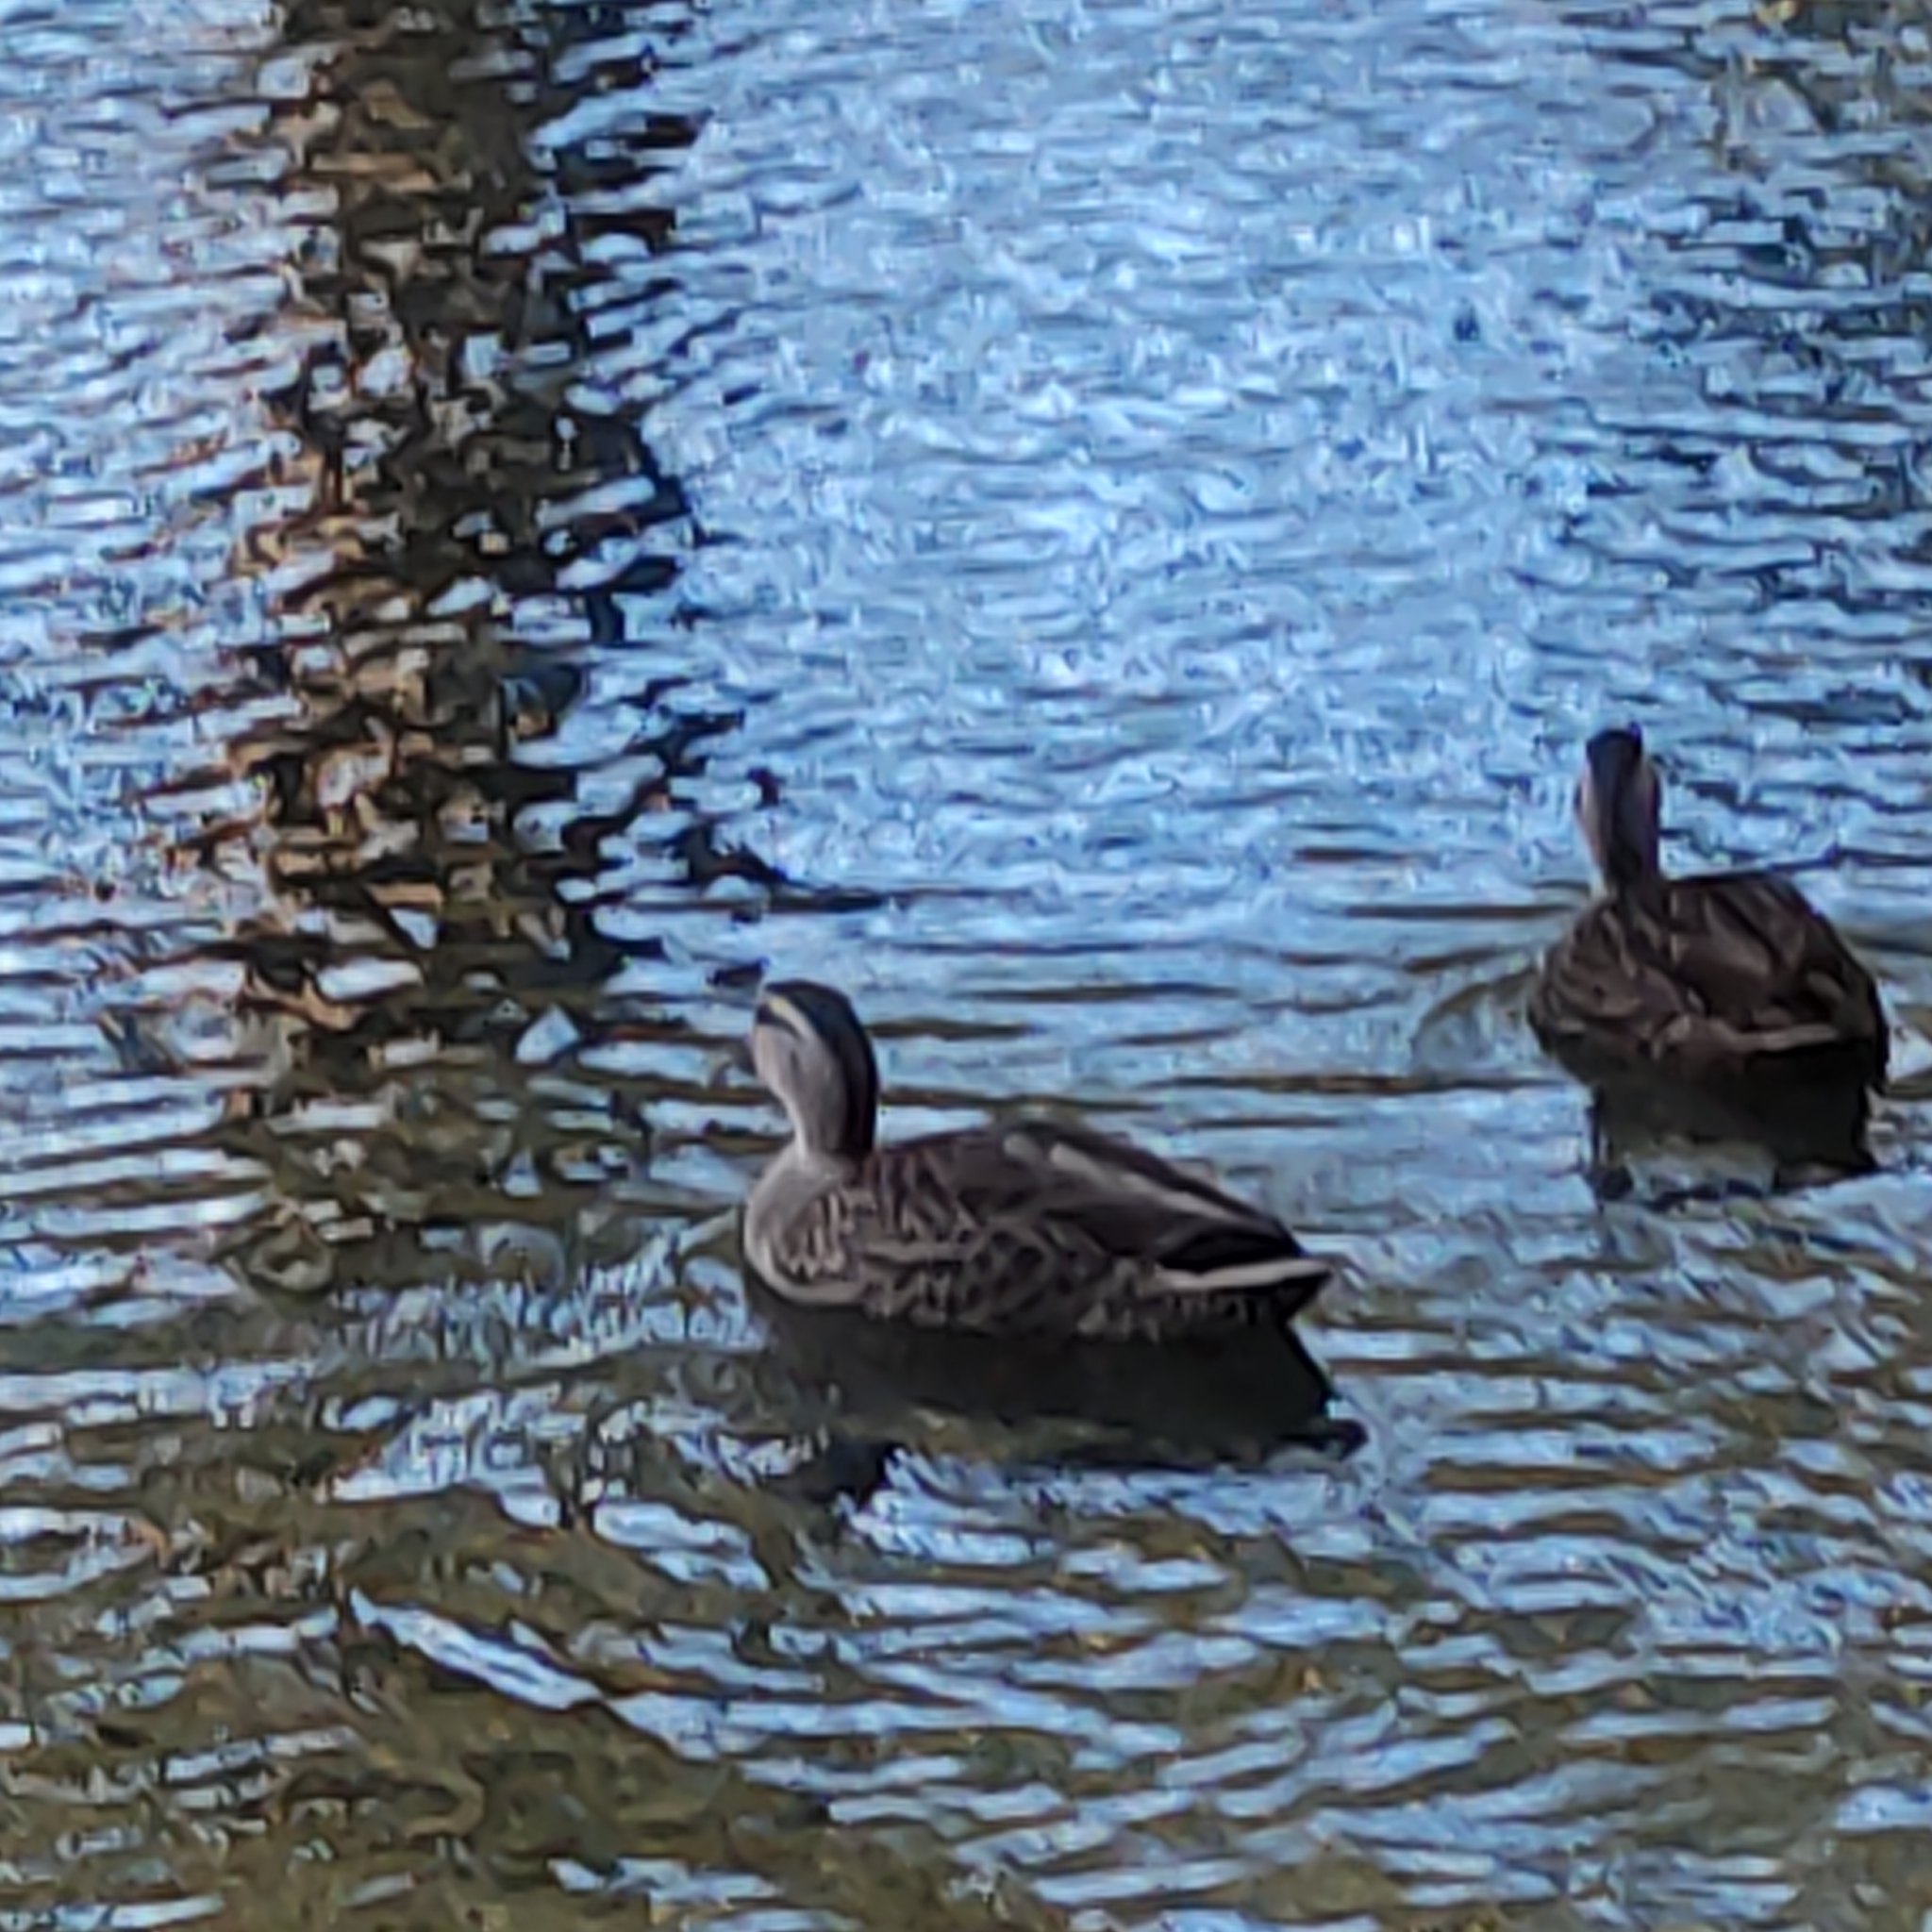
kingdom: Animalia
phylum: Chordata
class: Aves
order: Anseriformes
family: Anatidae
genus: Anas
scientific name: Anas
